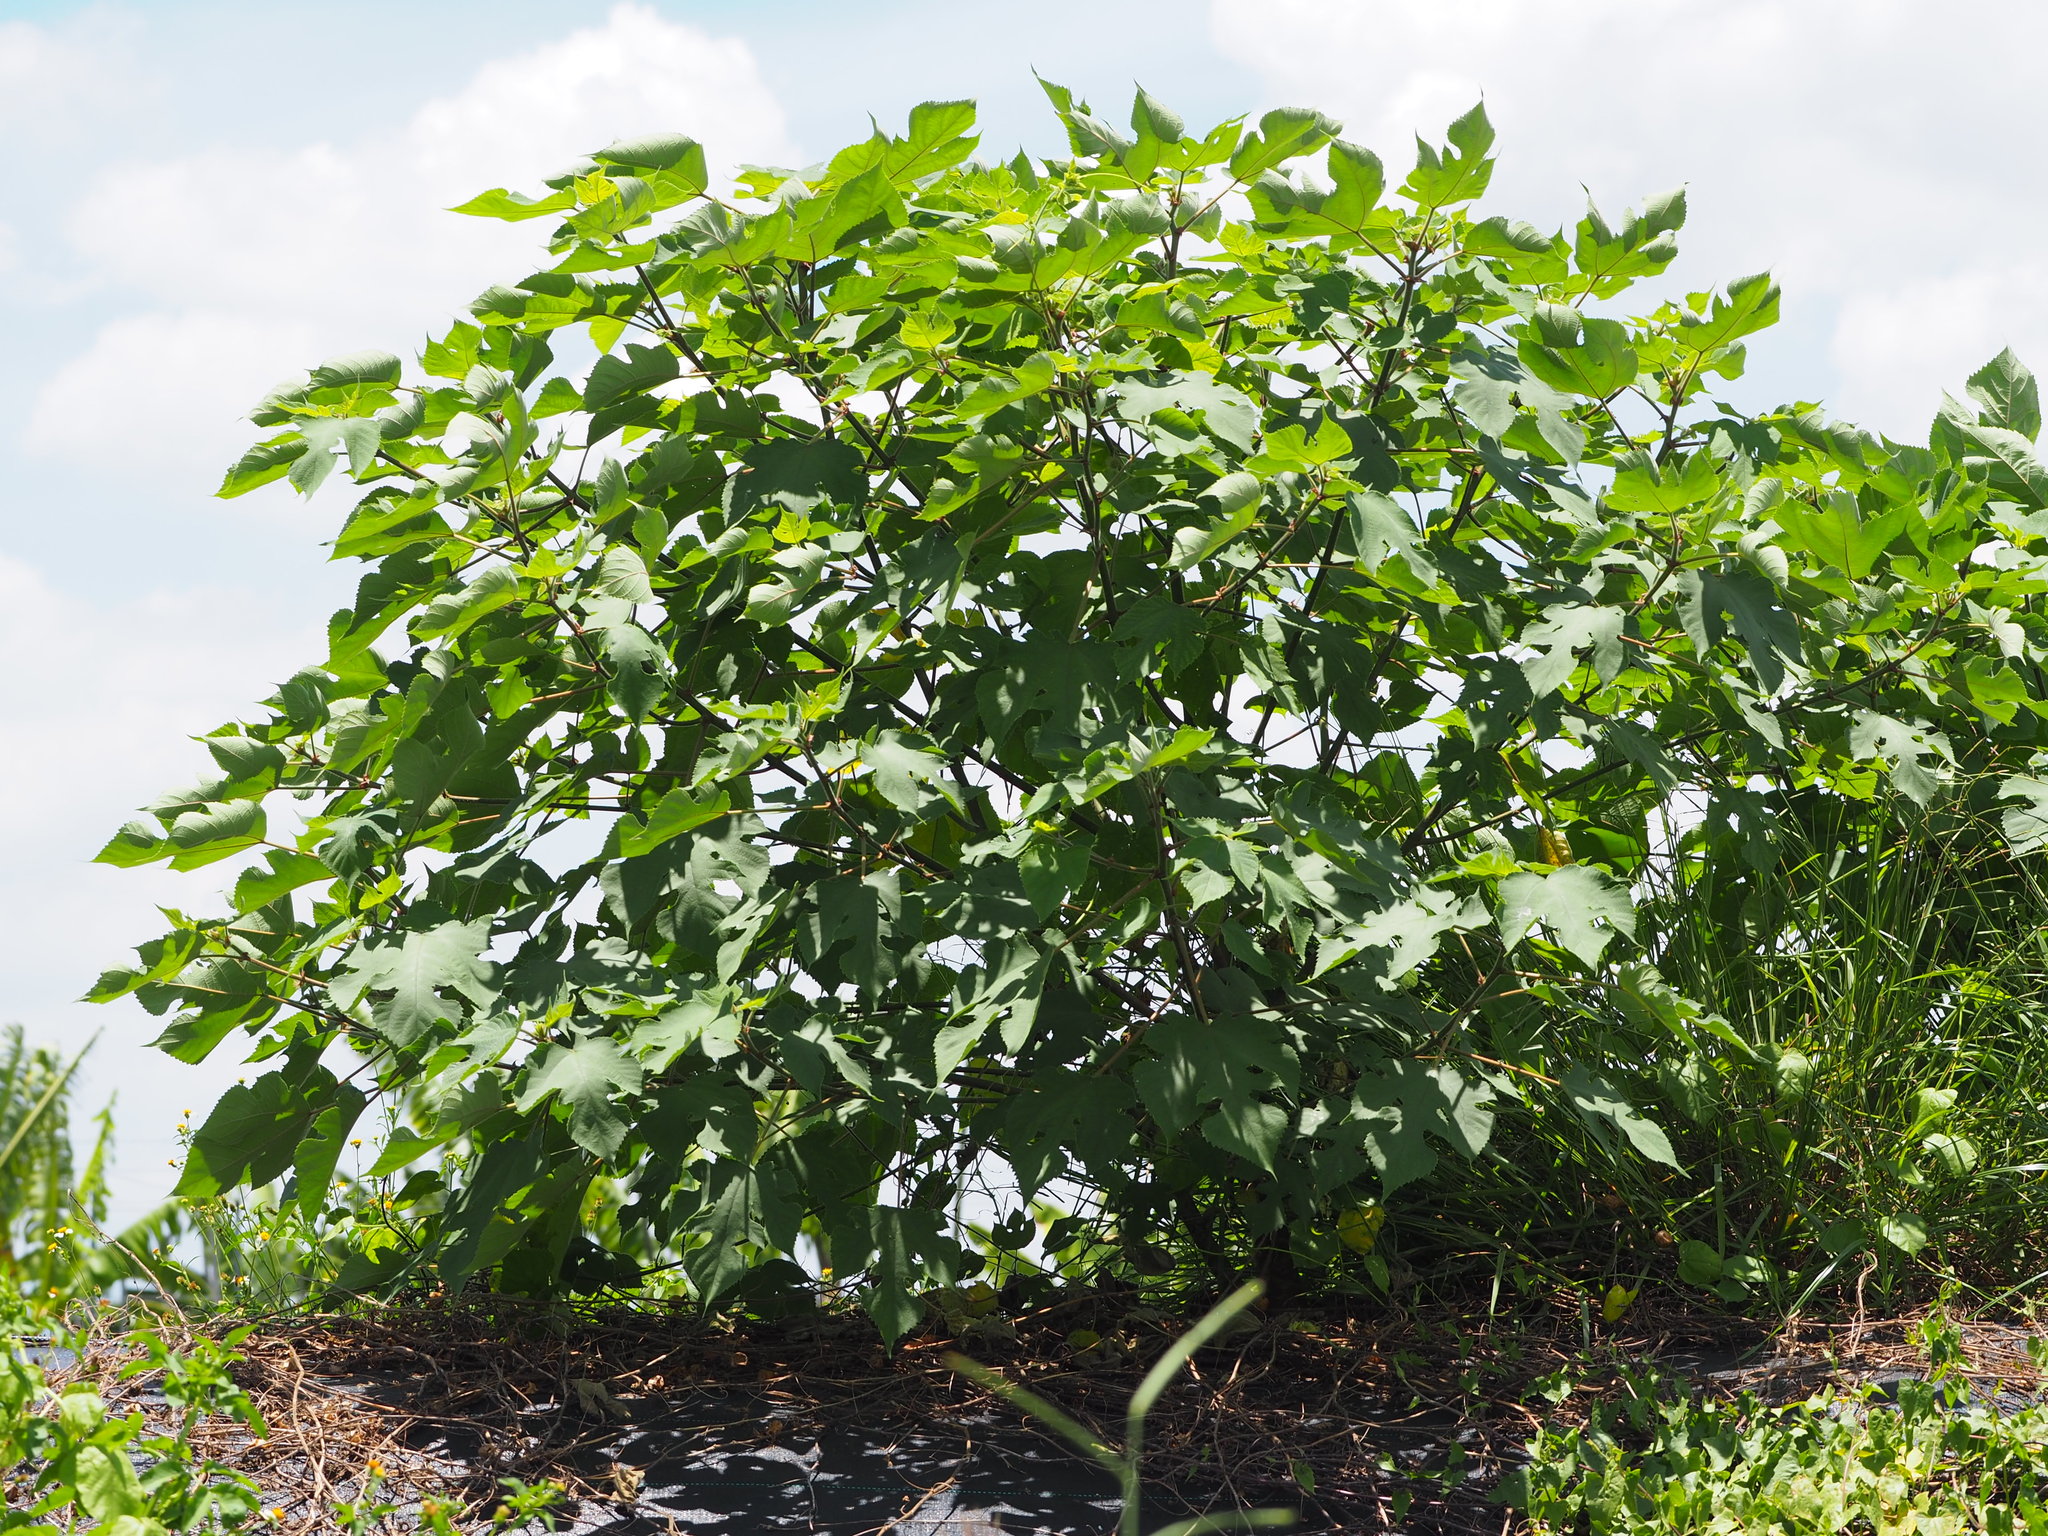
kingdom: Plantae
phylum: Tracheophyta
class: Magnoliopsida
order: Rosales
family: Moraceae
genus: Broussonetia
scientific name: Broussonetia papyrifera
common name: Paper mulberry
